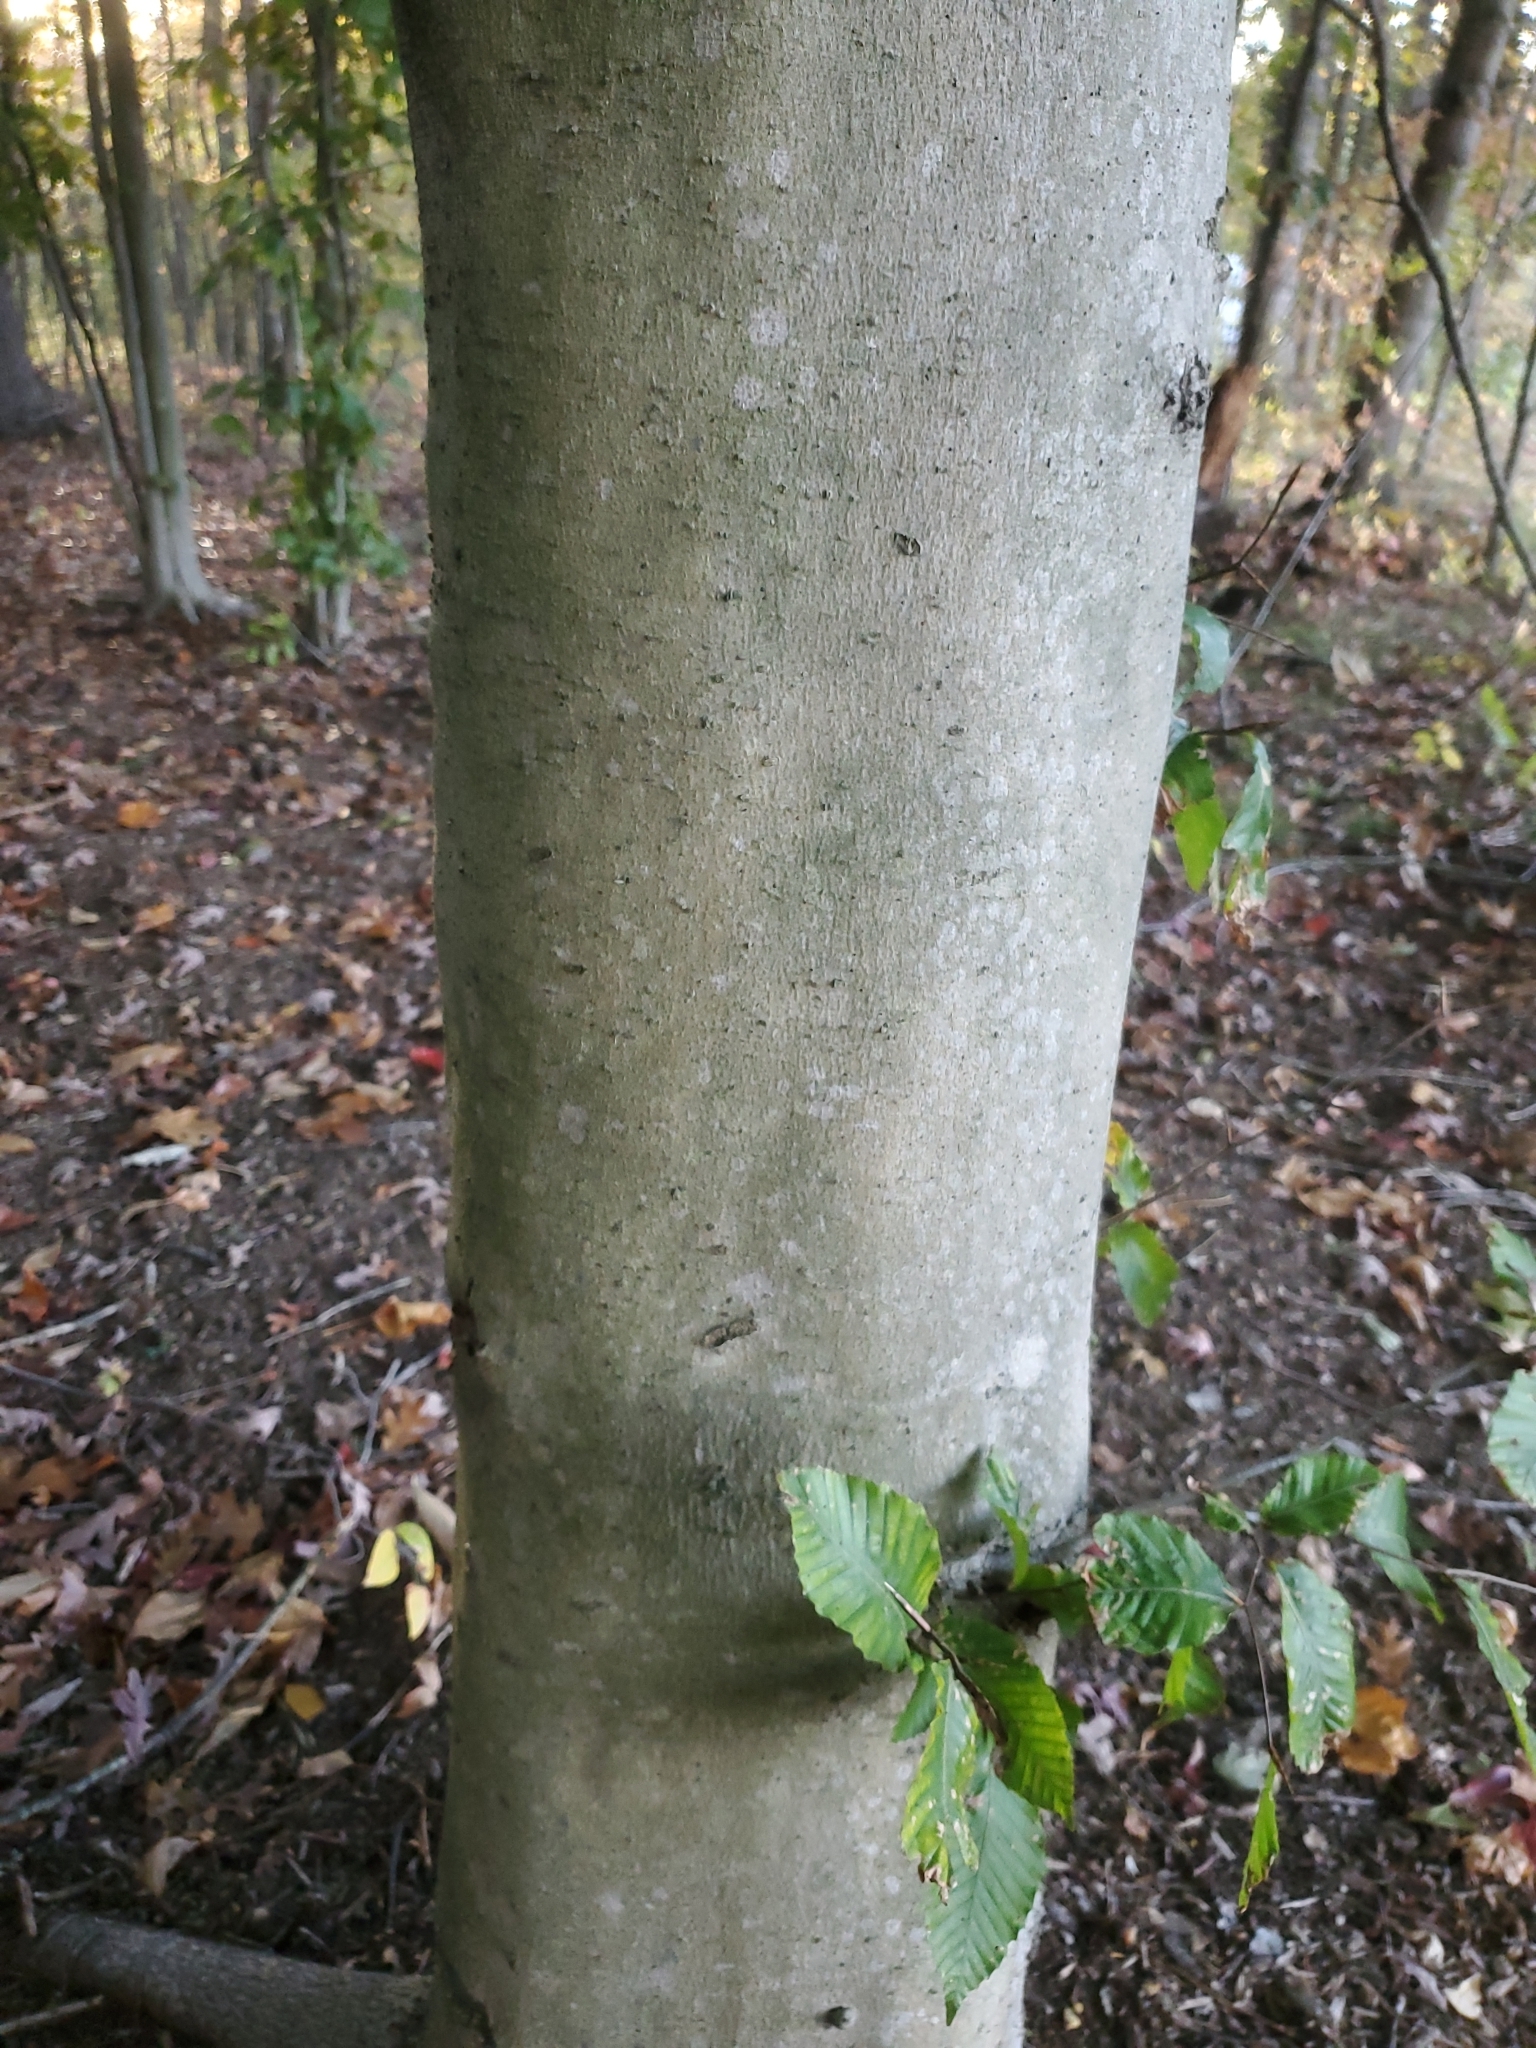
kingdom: Plantae
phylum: Tracheophyta
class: Magnoliopsida
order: Fagales
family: Fagaceae
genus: Fagus
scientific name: Fagus grandifolia
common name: American beech
